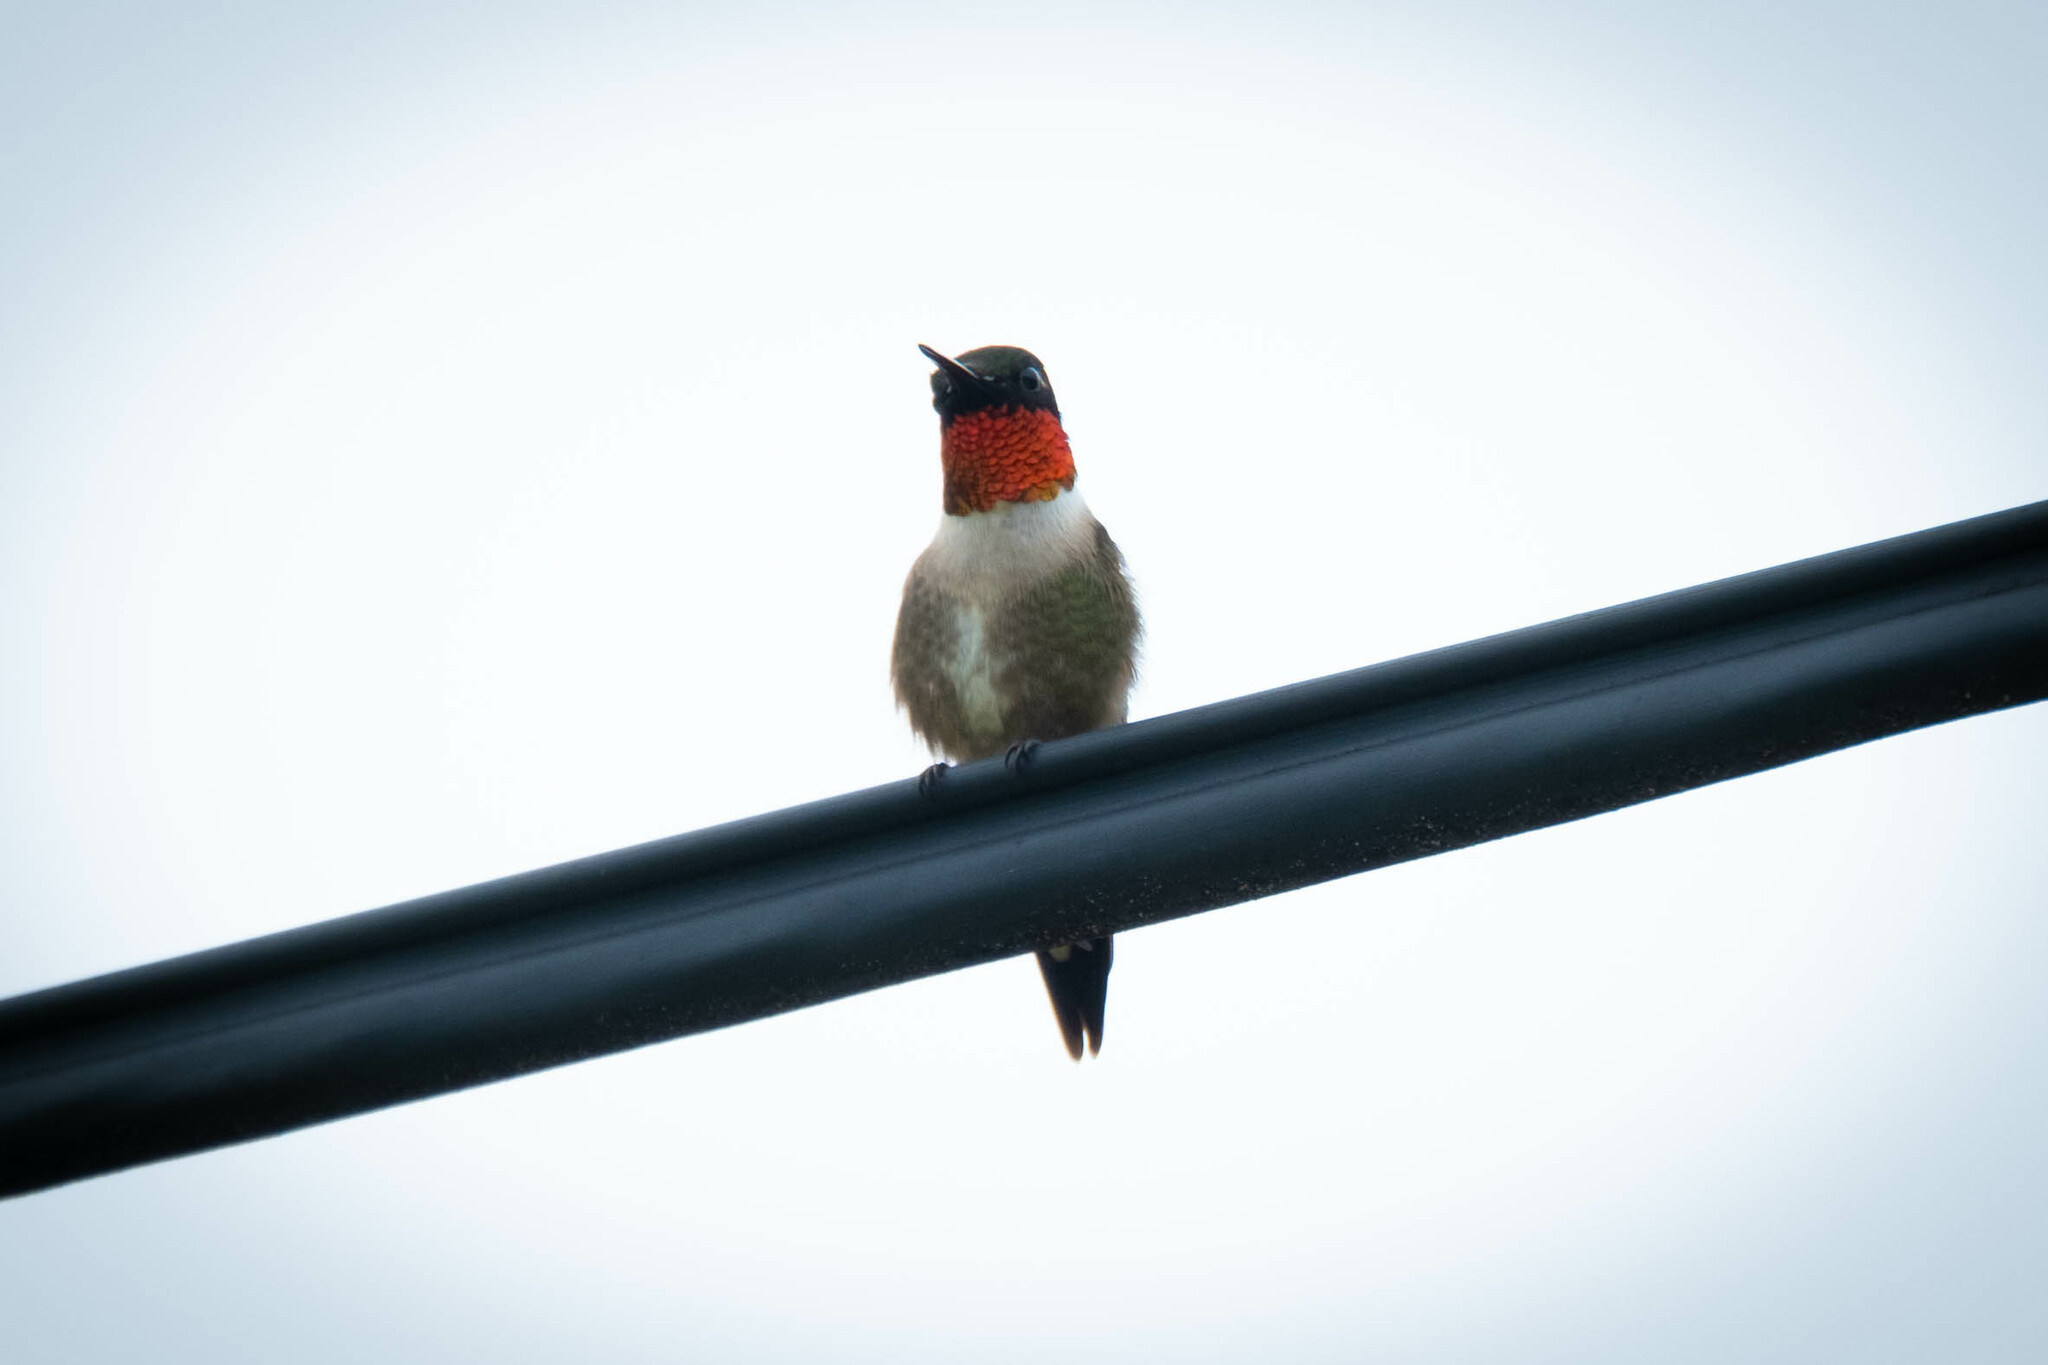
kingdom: Animalia
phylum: Chordata
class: Aves
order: Apodiformes
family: Trochilidae
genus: Archilochus
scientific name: Archilochus colubris
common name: Ruby-throated hummingbird
